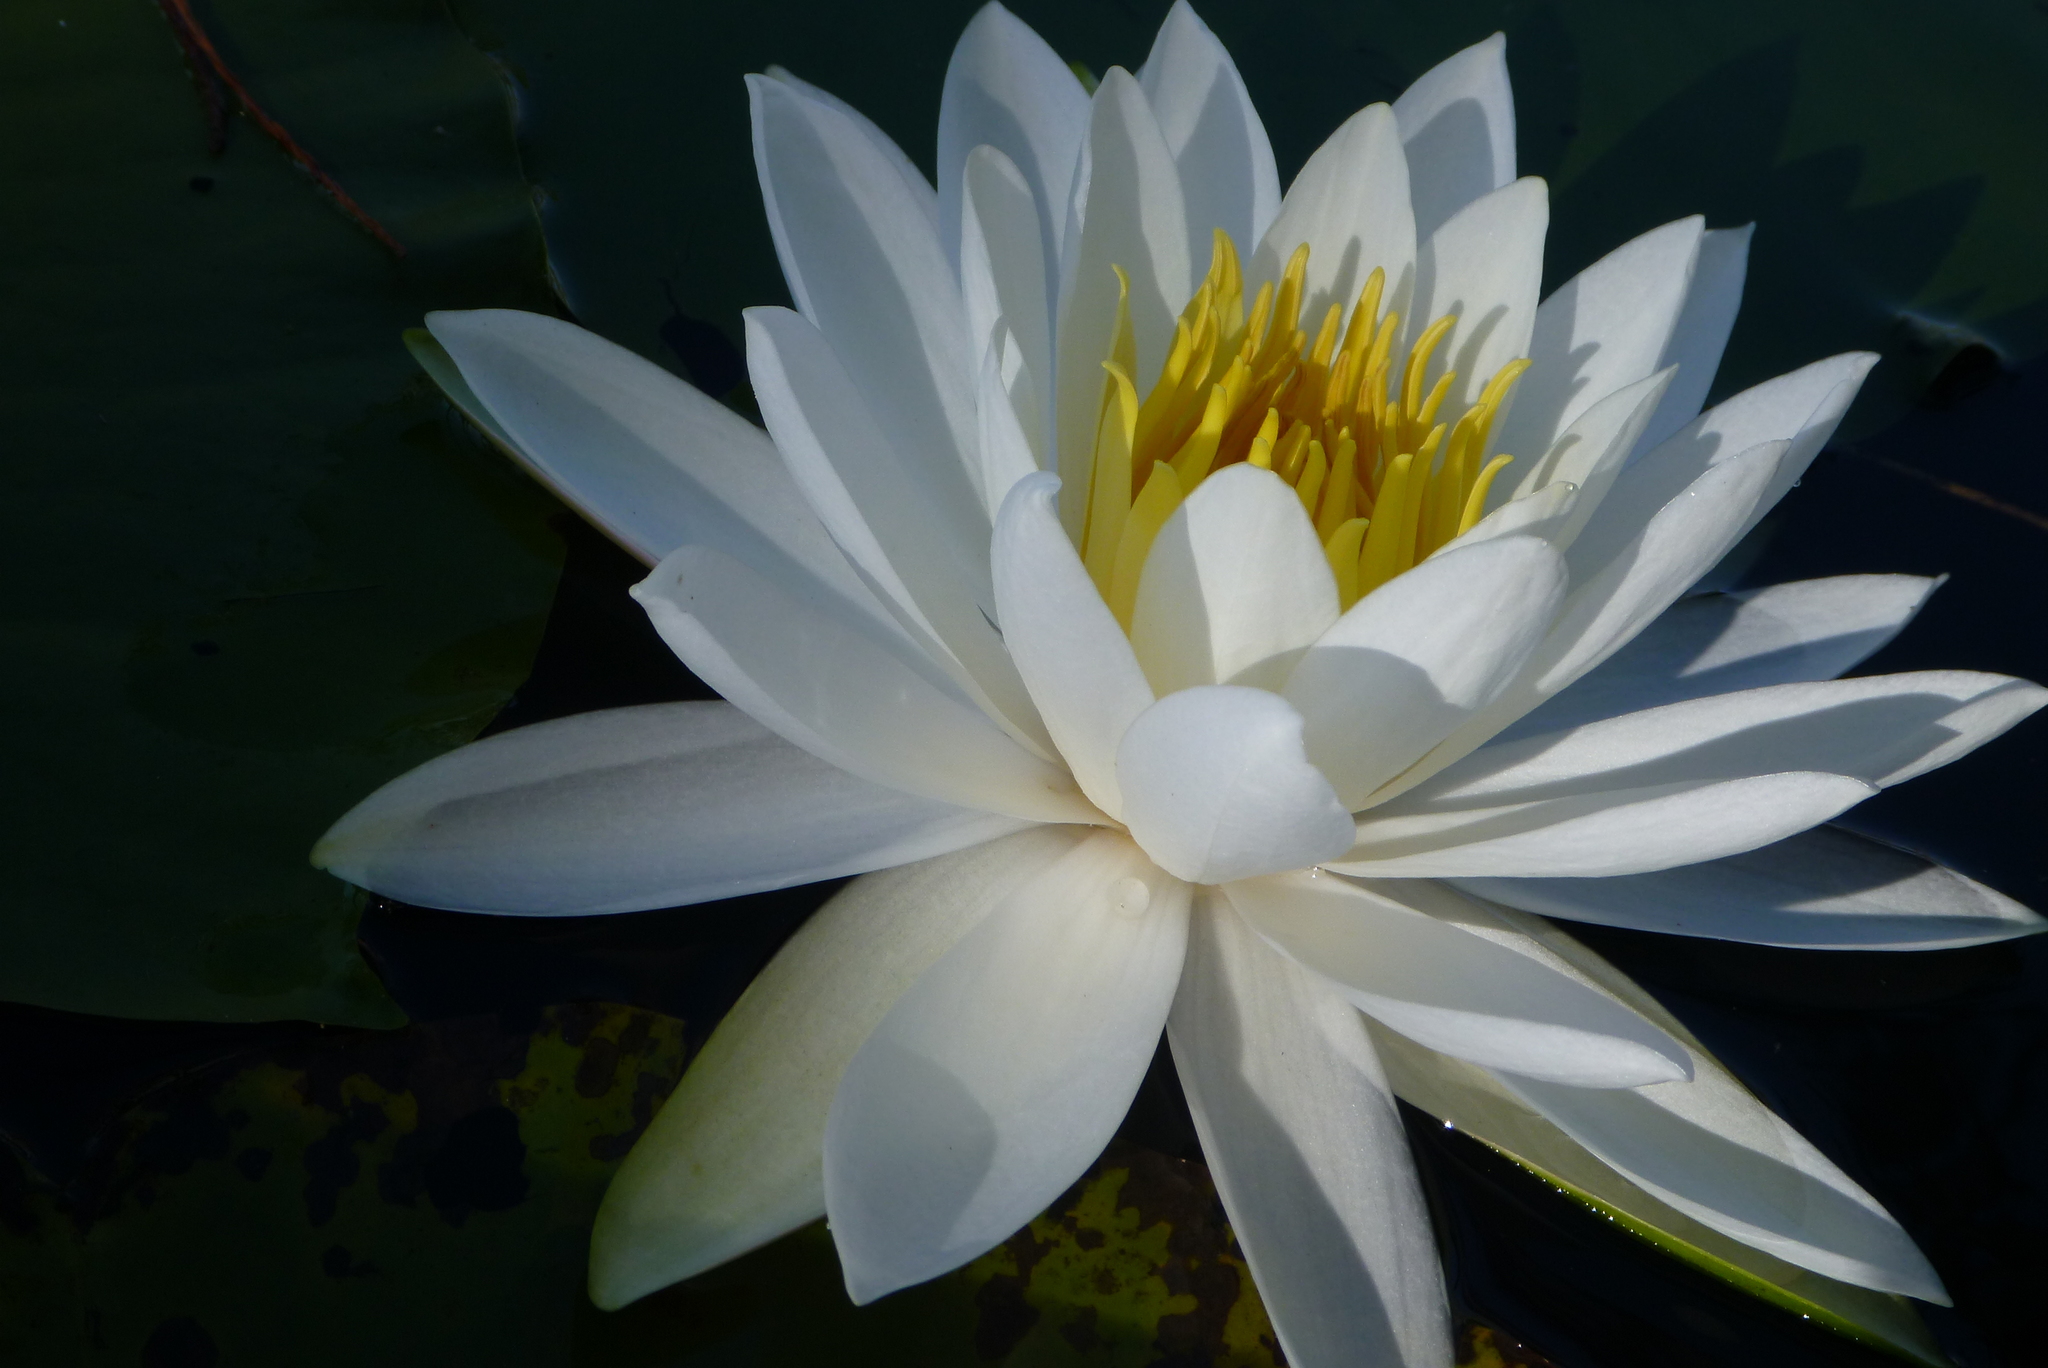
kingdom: Plantae
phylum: Tracheophyta
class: Magnoliopsida
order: Nymphaeales
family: Nymphaeaceae
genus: Nymphaea
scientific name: Nymphaea odorata
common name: Fragrant water-lily
